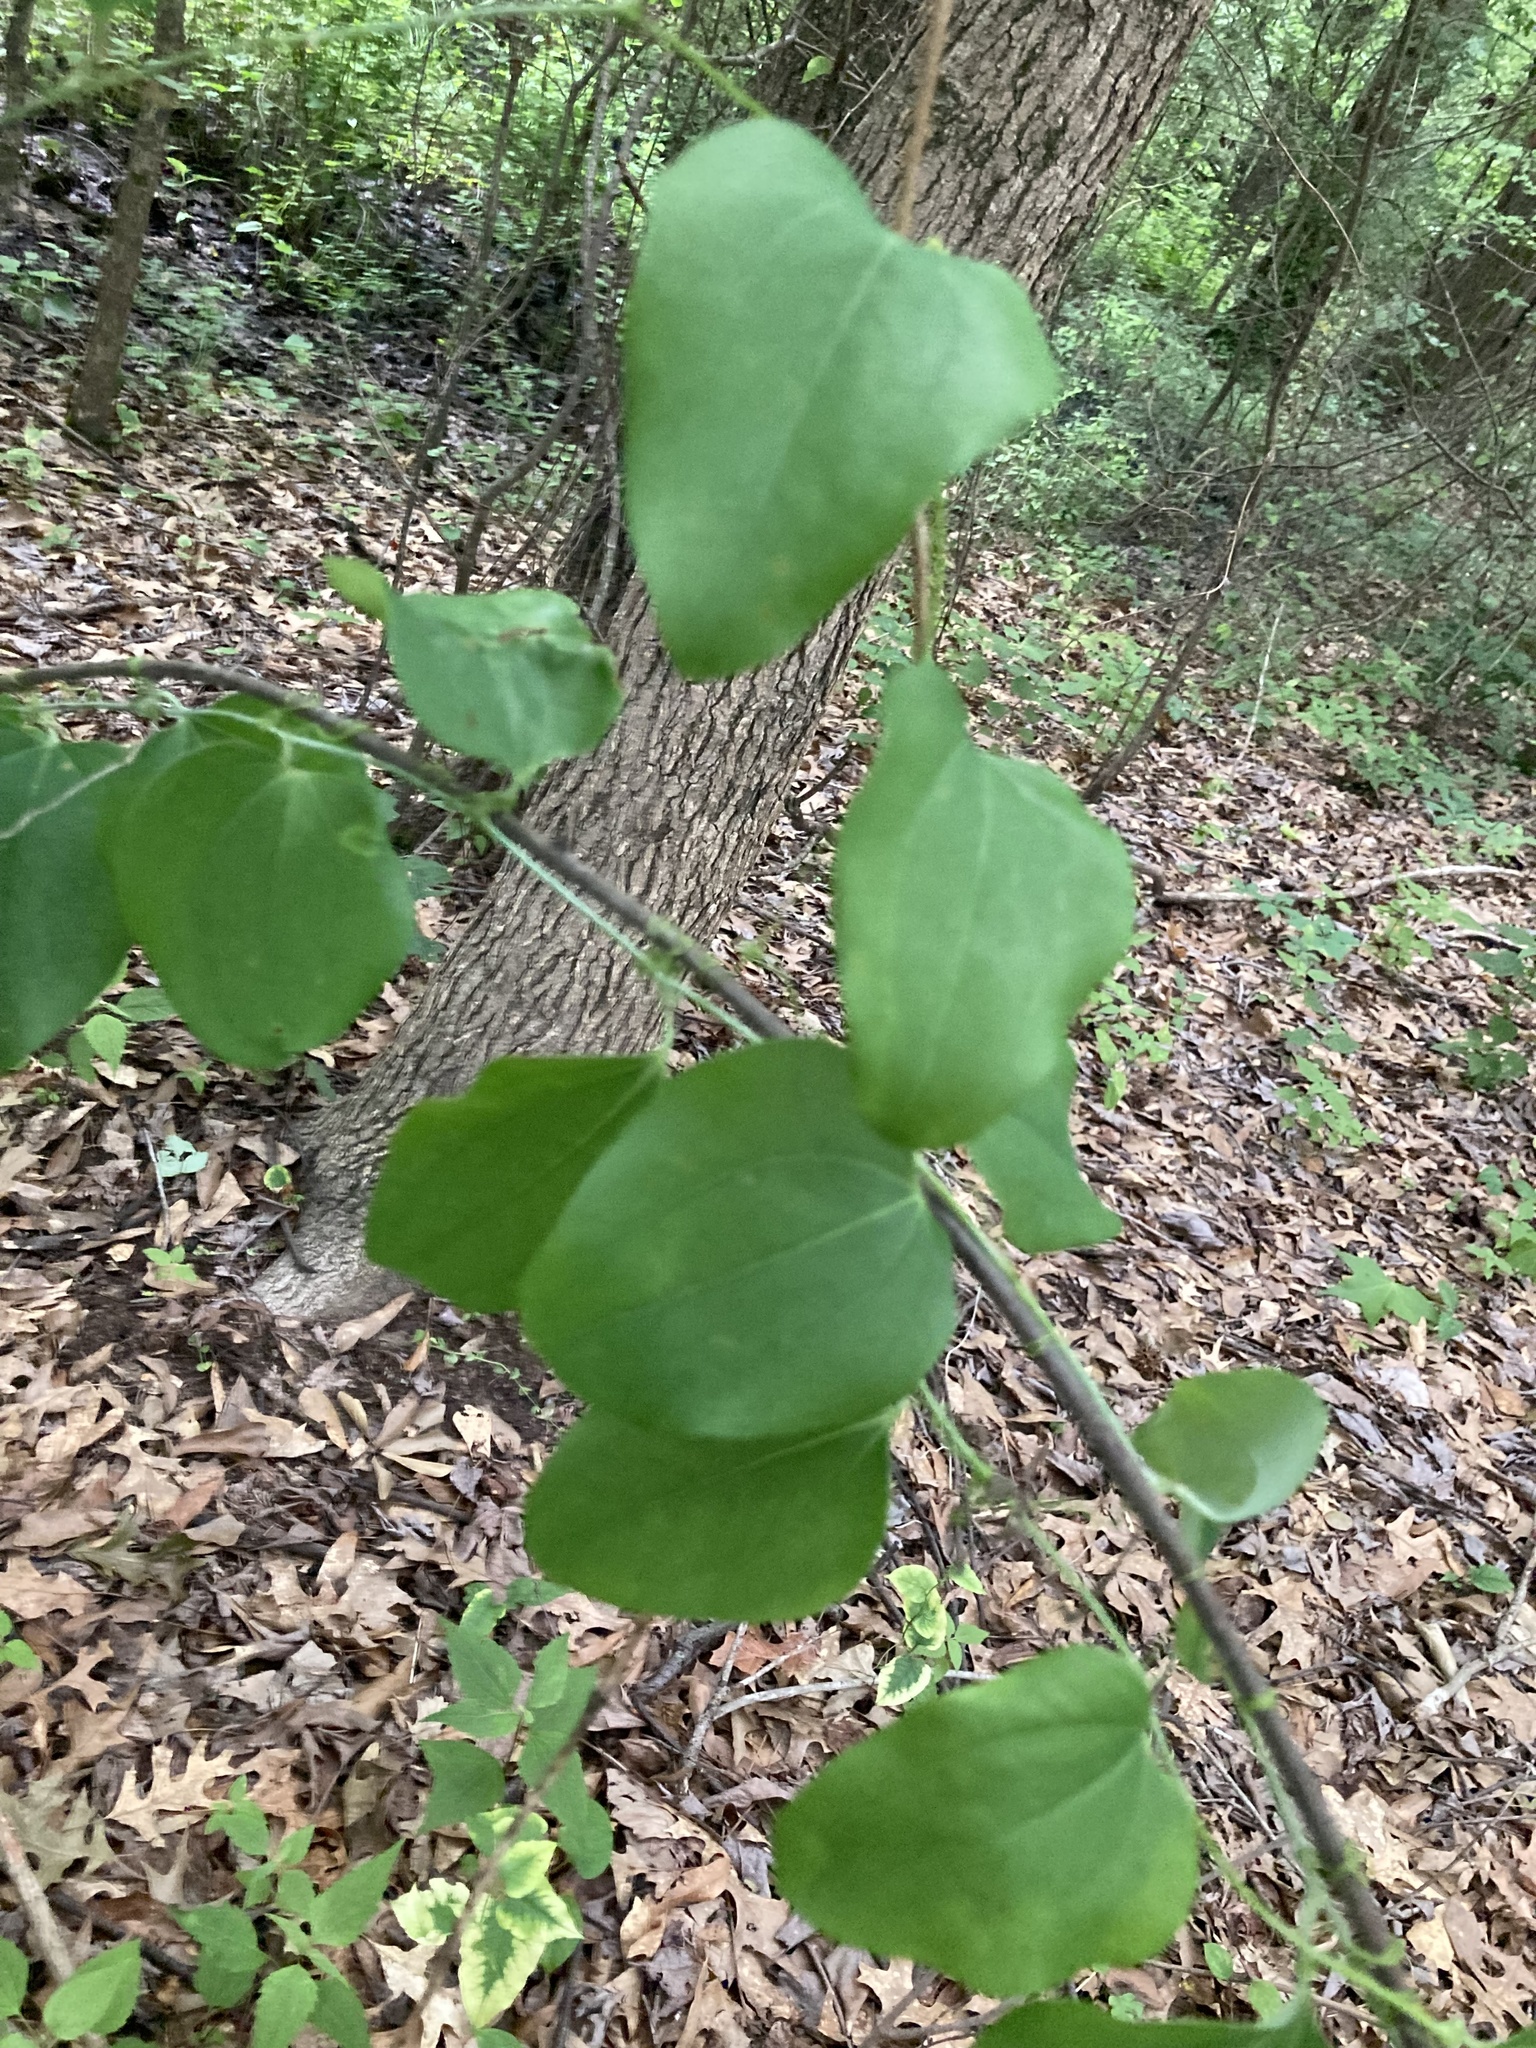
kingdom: Plantae
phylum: Tracheophyta
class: Liliopsida
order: Liliales
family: Smilacaceae
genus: Smilax
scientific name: Smilax rotundifolia
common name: Bullbriar
